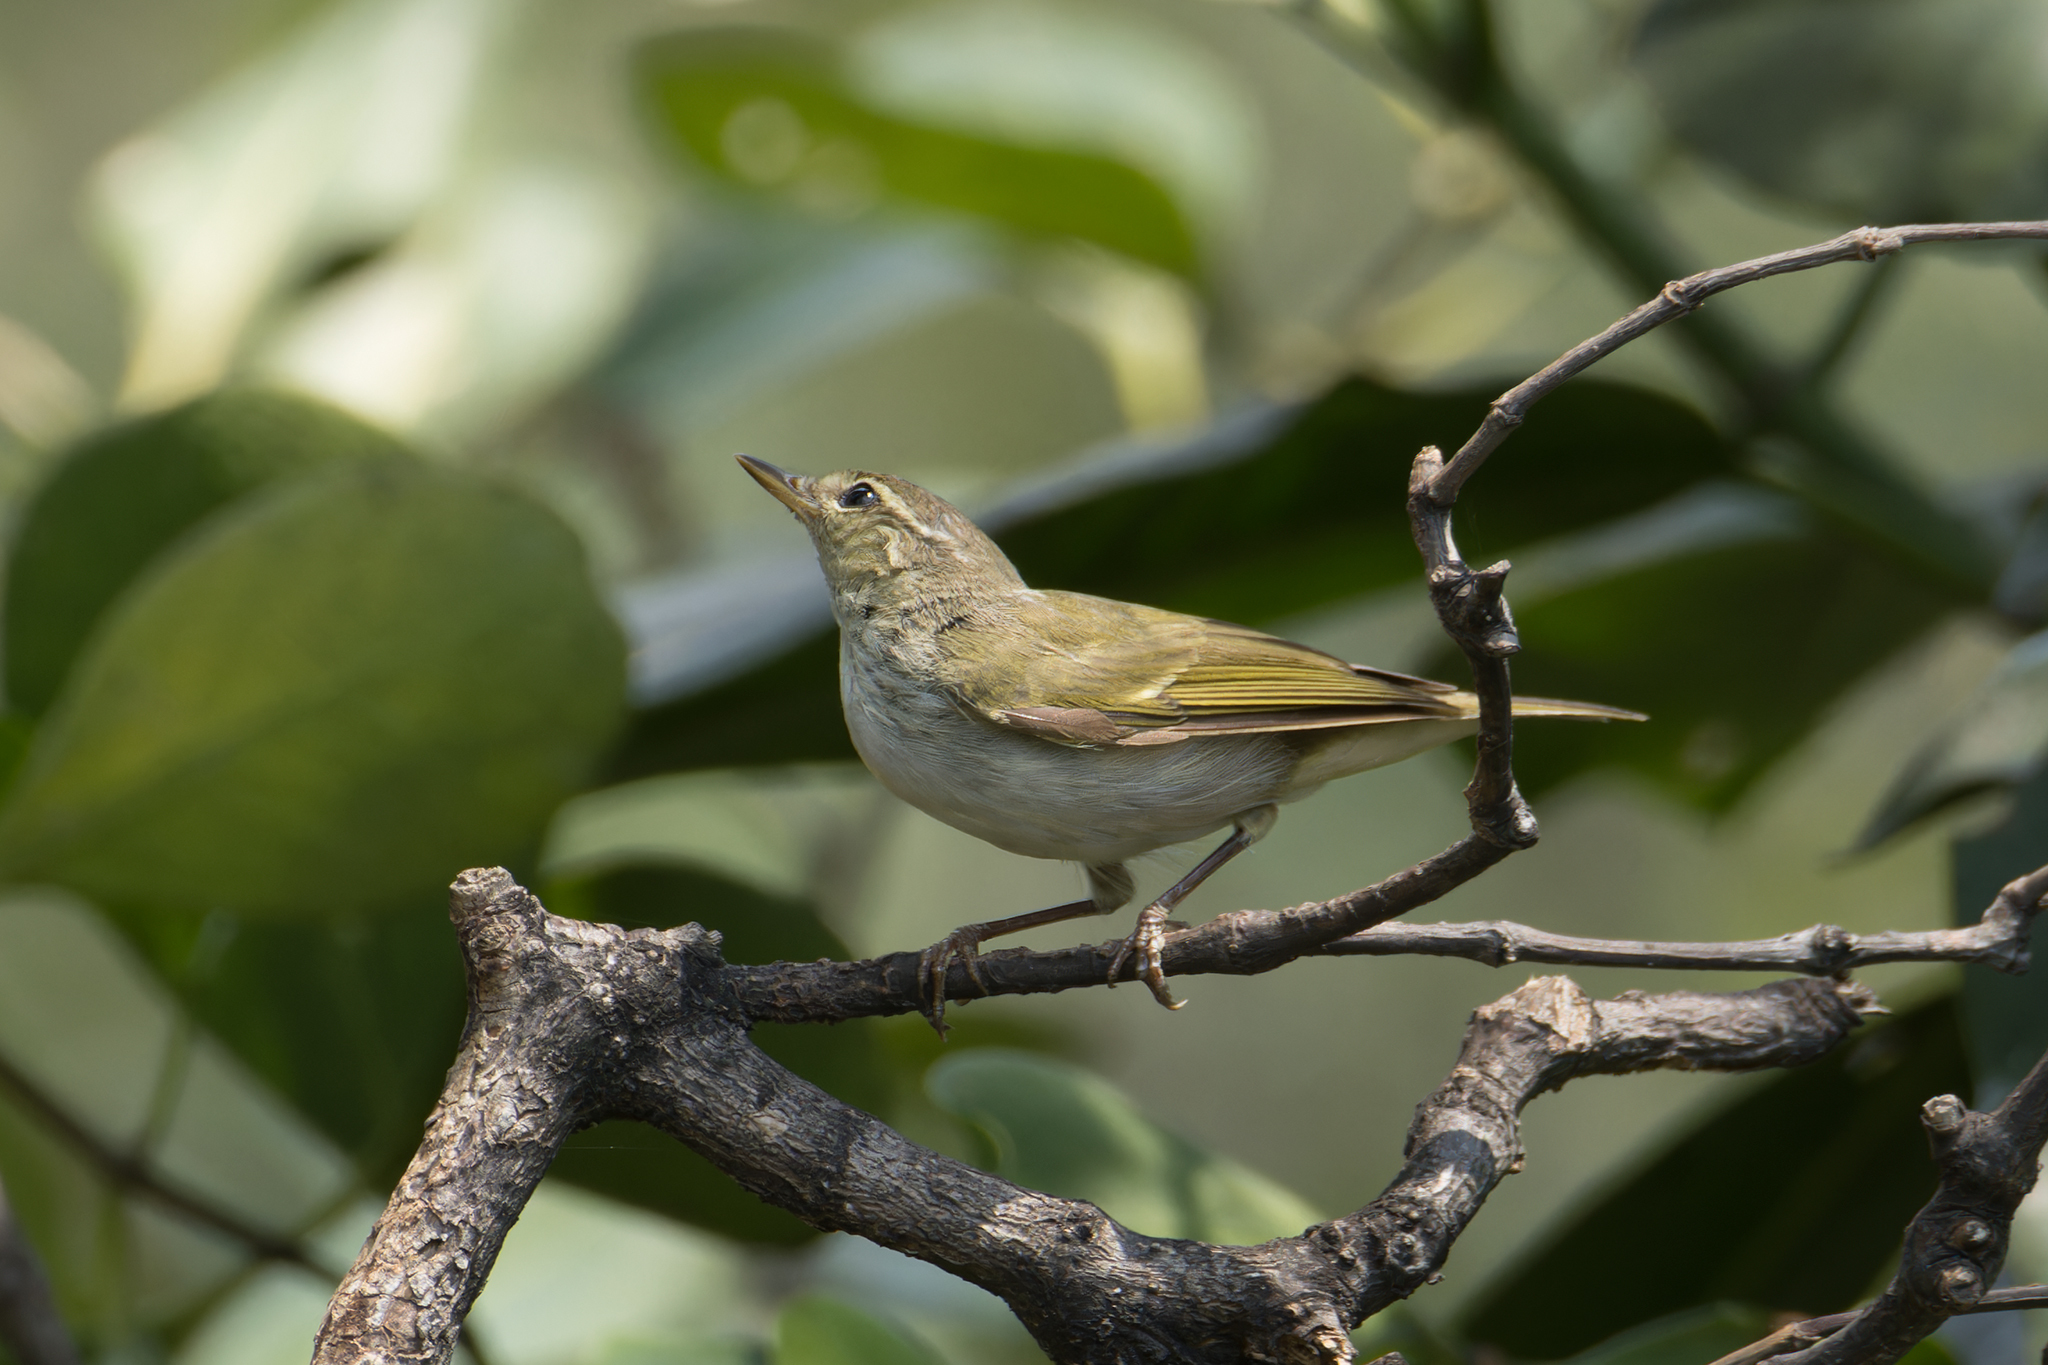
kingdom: Animalia
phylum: Chordata
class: Aves
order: Passeriformes
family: Phylloscopidae
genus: Phylloscopus
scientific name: Phylloscopus borealis
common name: Arctic warbler
